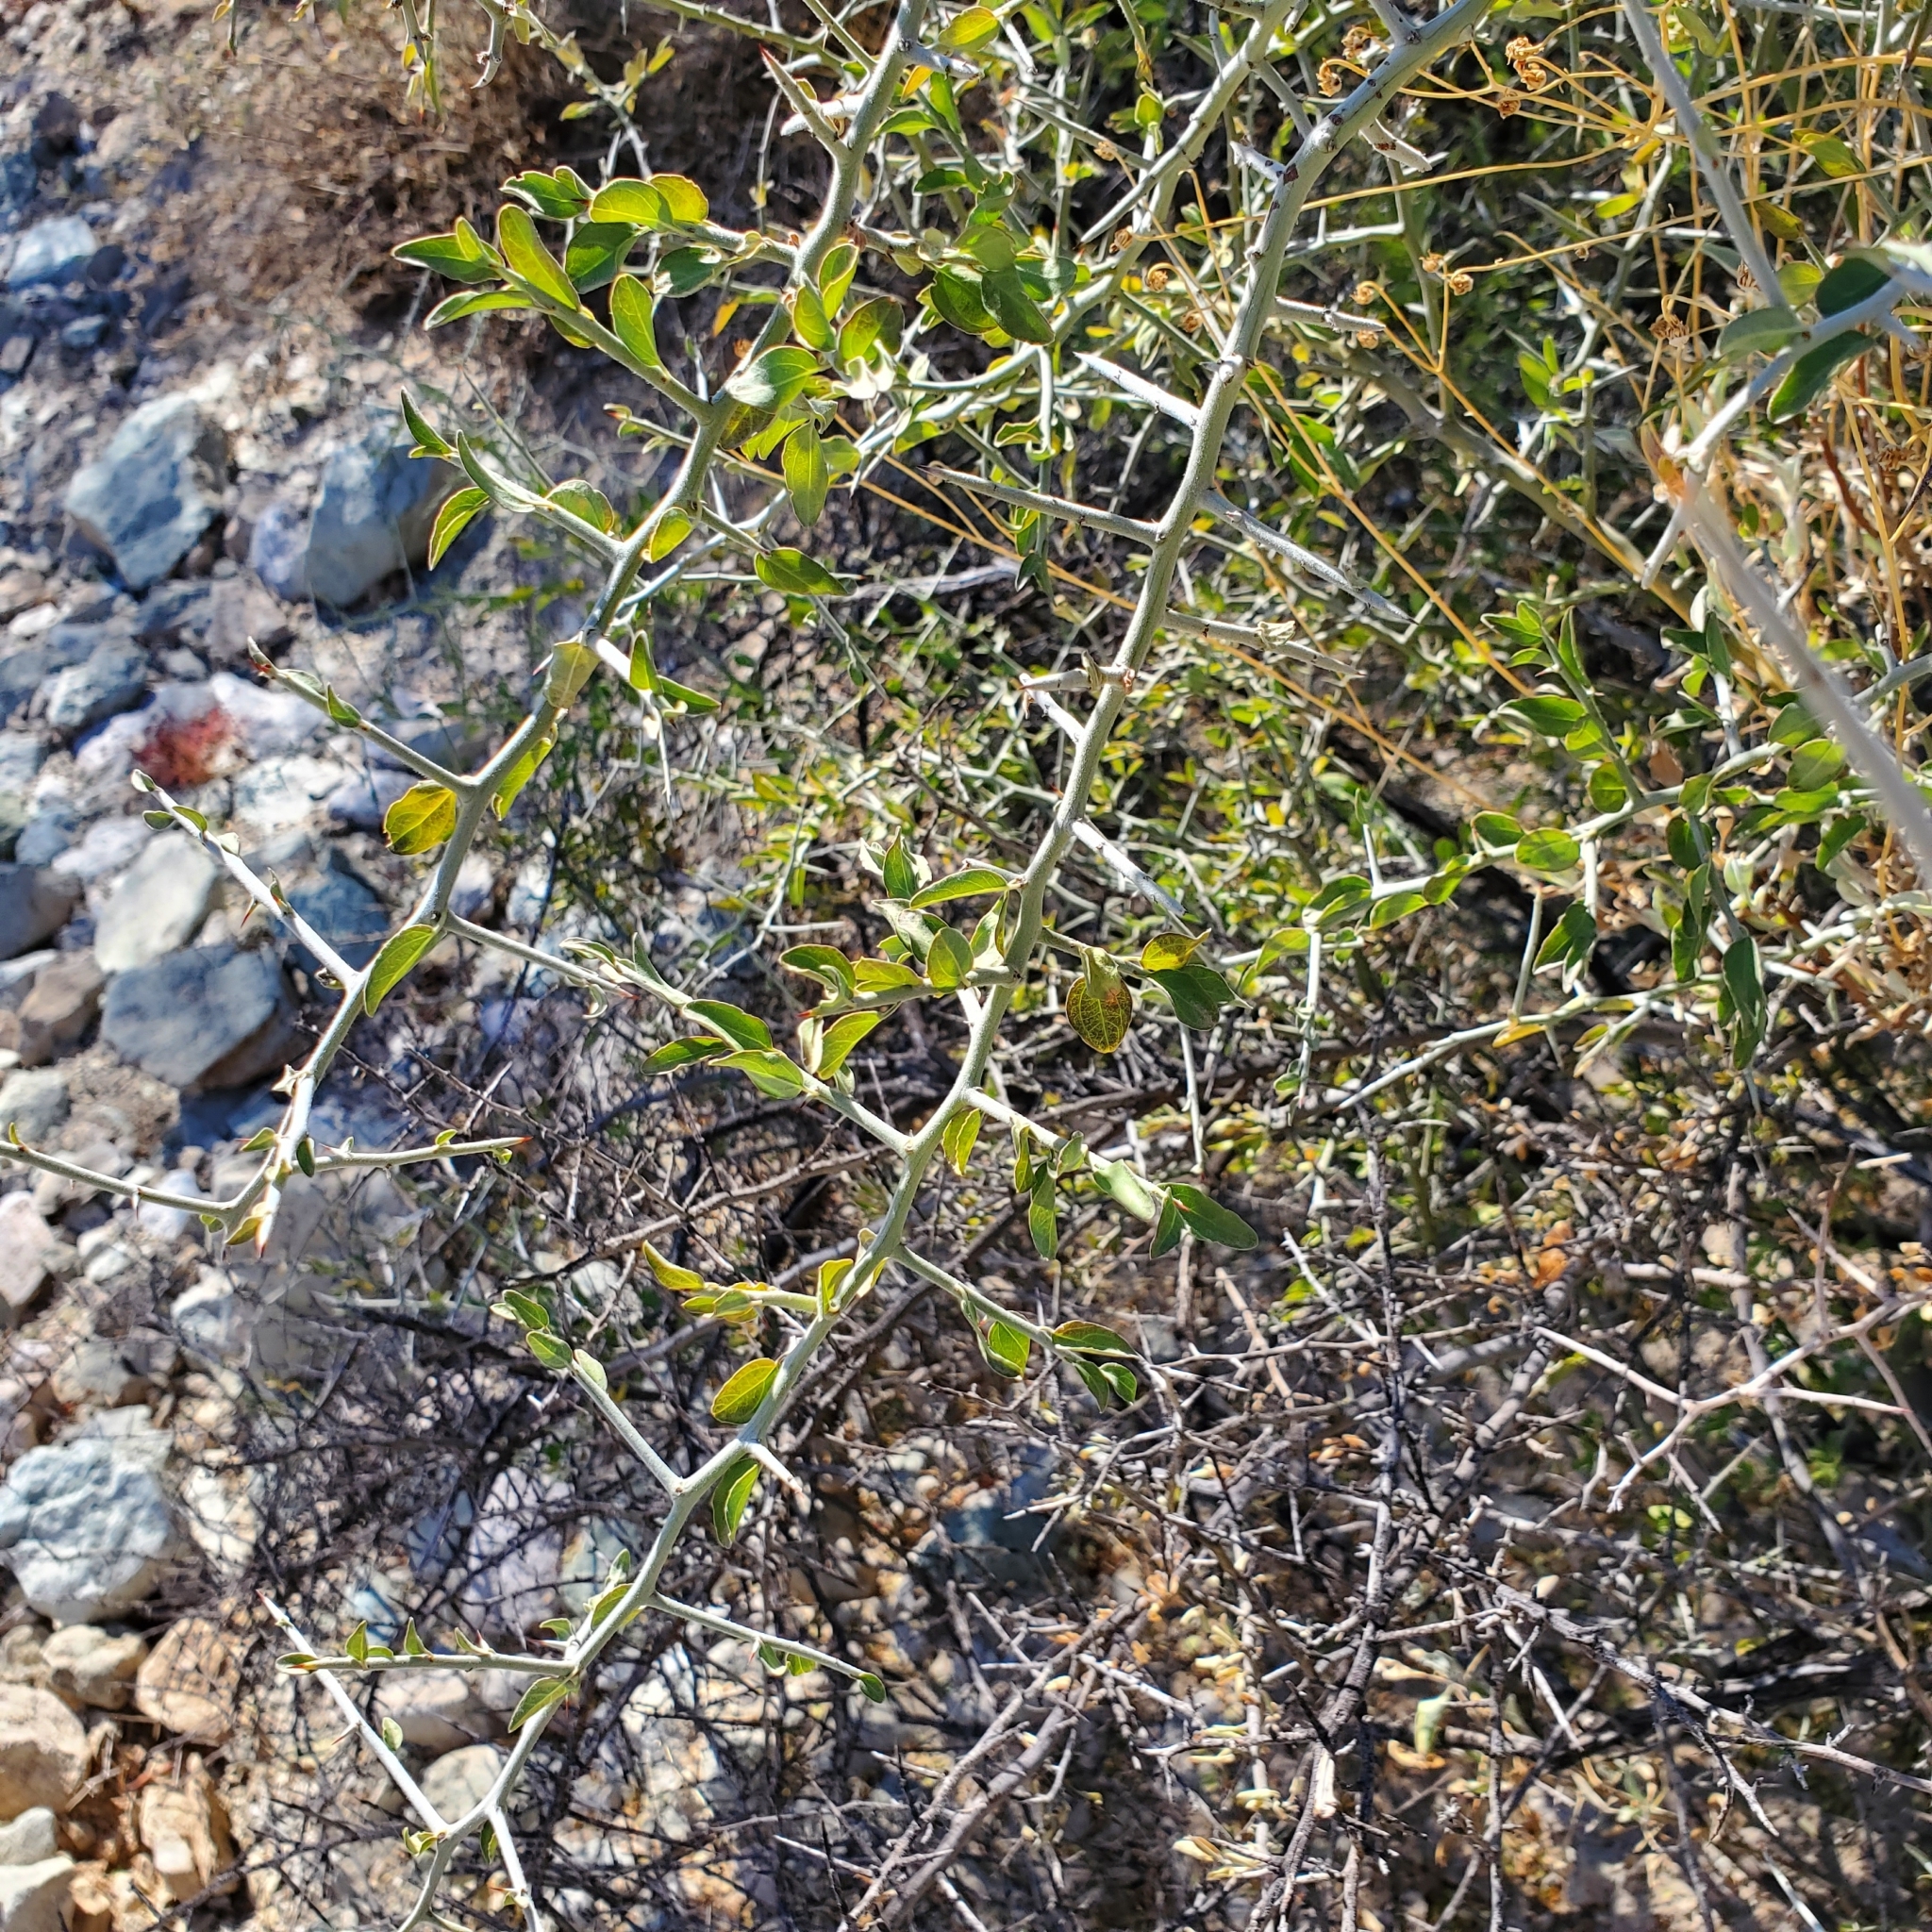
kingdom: Plantae
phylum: Tracheophyta
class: Magnoliopsida
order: Rosales
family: Rhamnaceae
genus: Sarcomphalus
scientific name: Sarcomphalus obtusifolius
